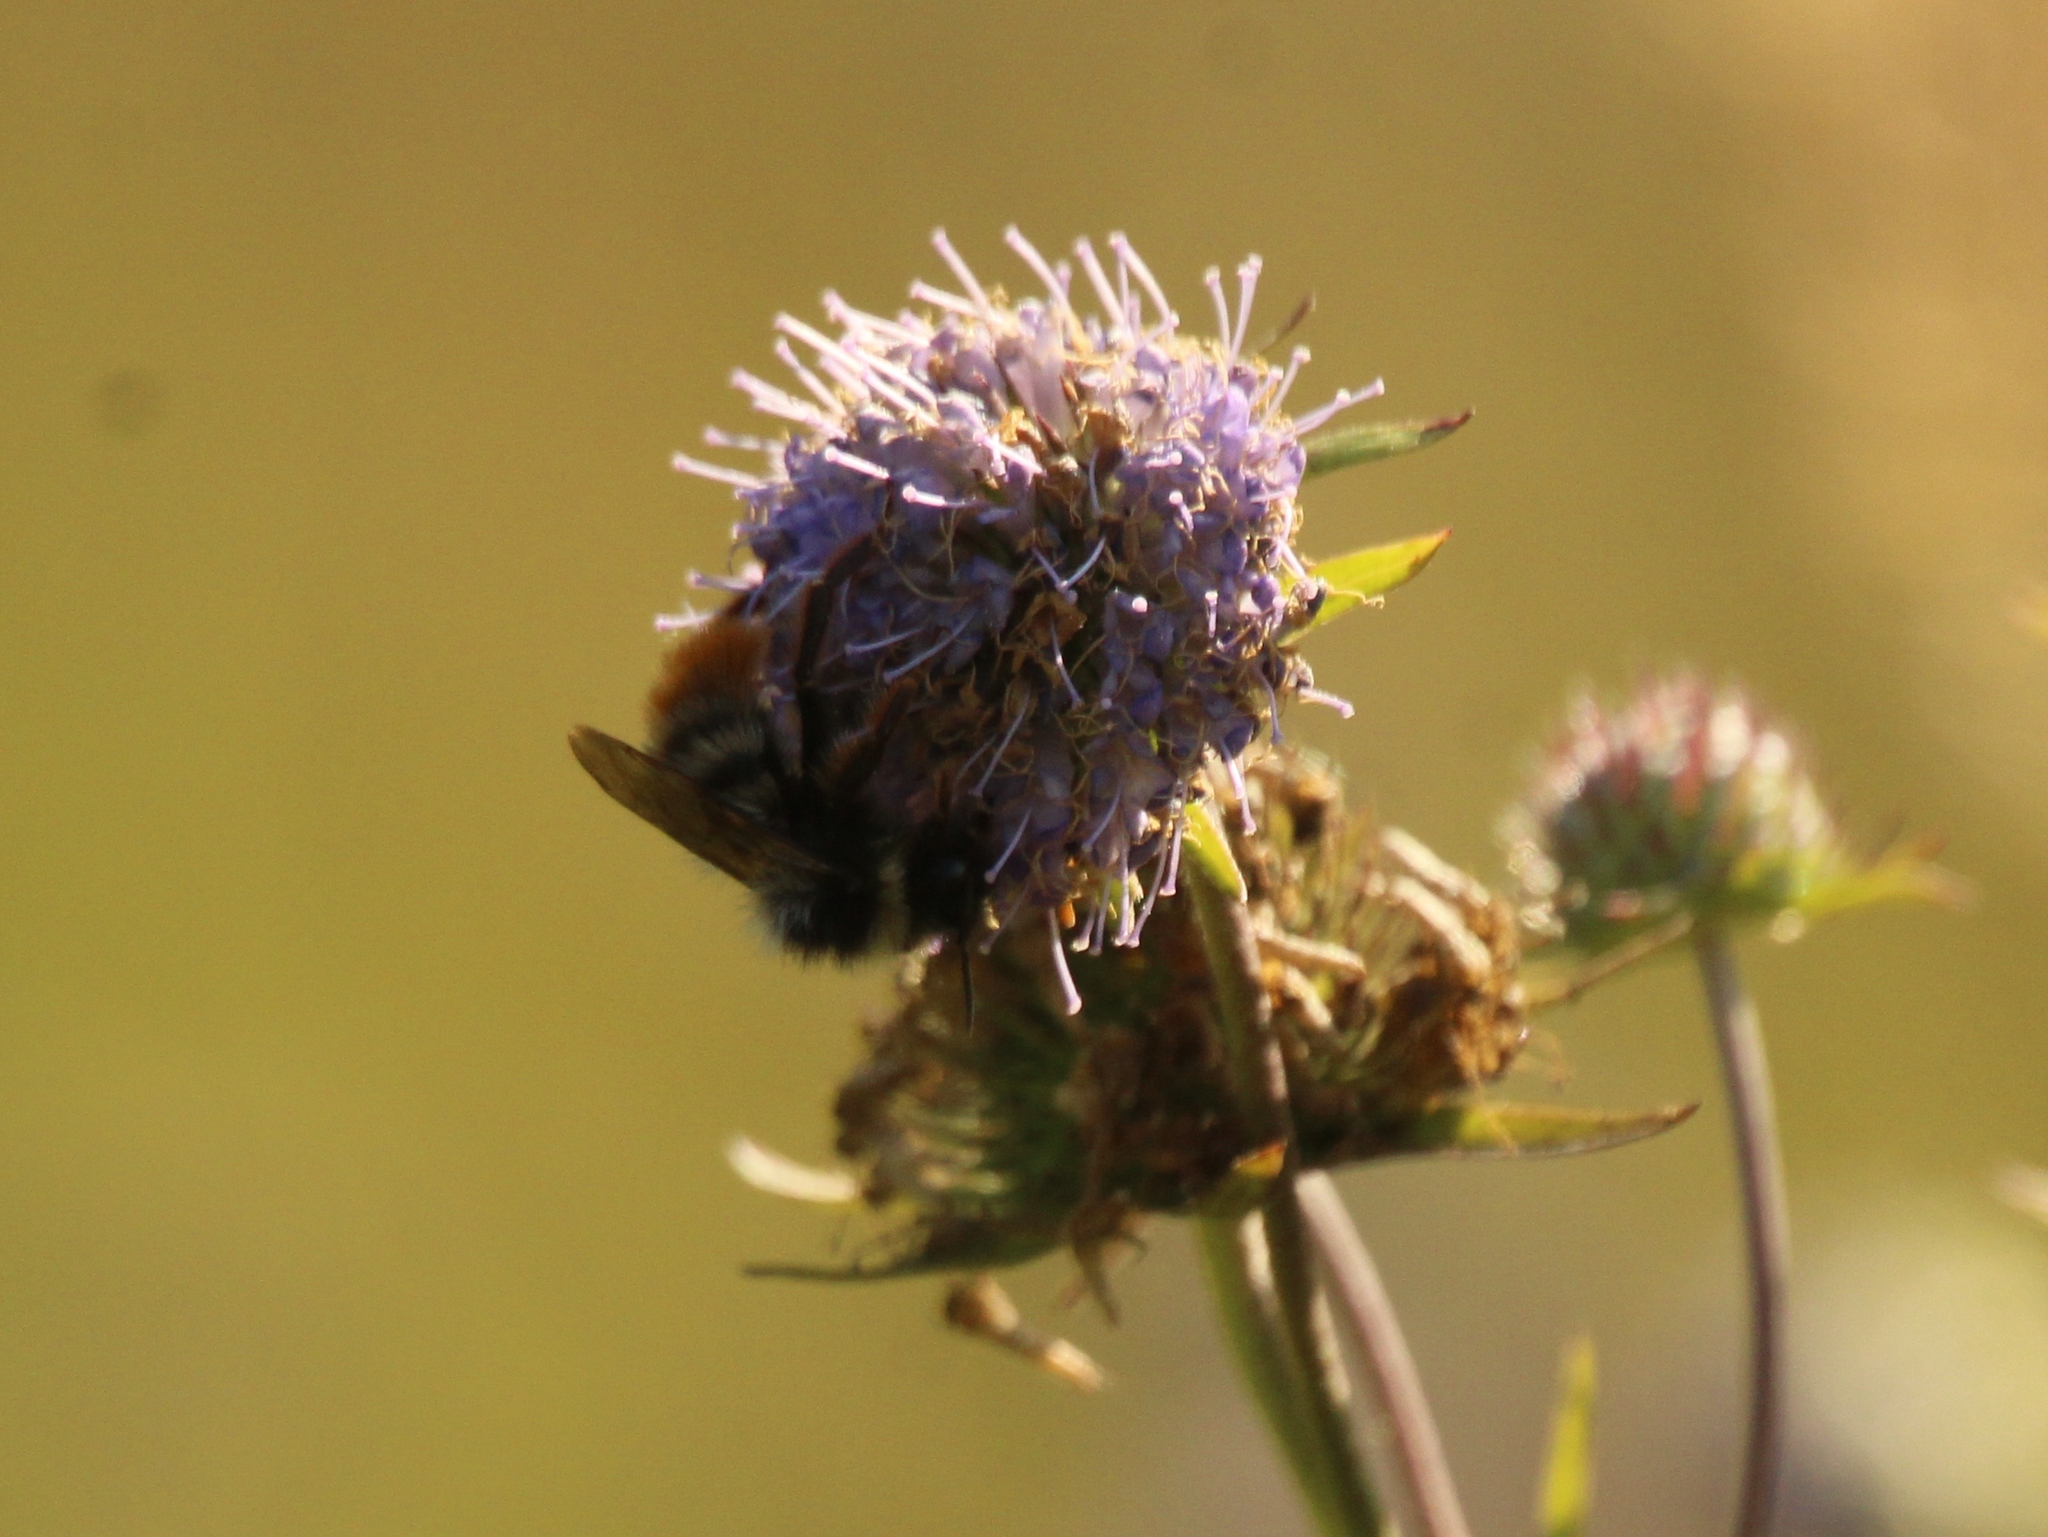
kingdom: Animalia
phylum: Arthropoda
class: Insecta
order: Hymenoptera
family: Apidae
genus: Bombus
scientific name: Bombus rupestris
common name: Hill cuckoo-bee
